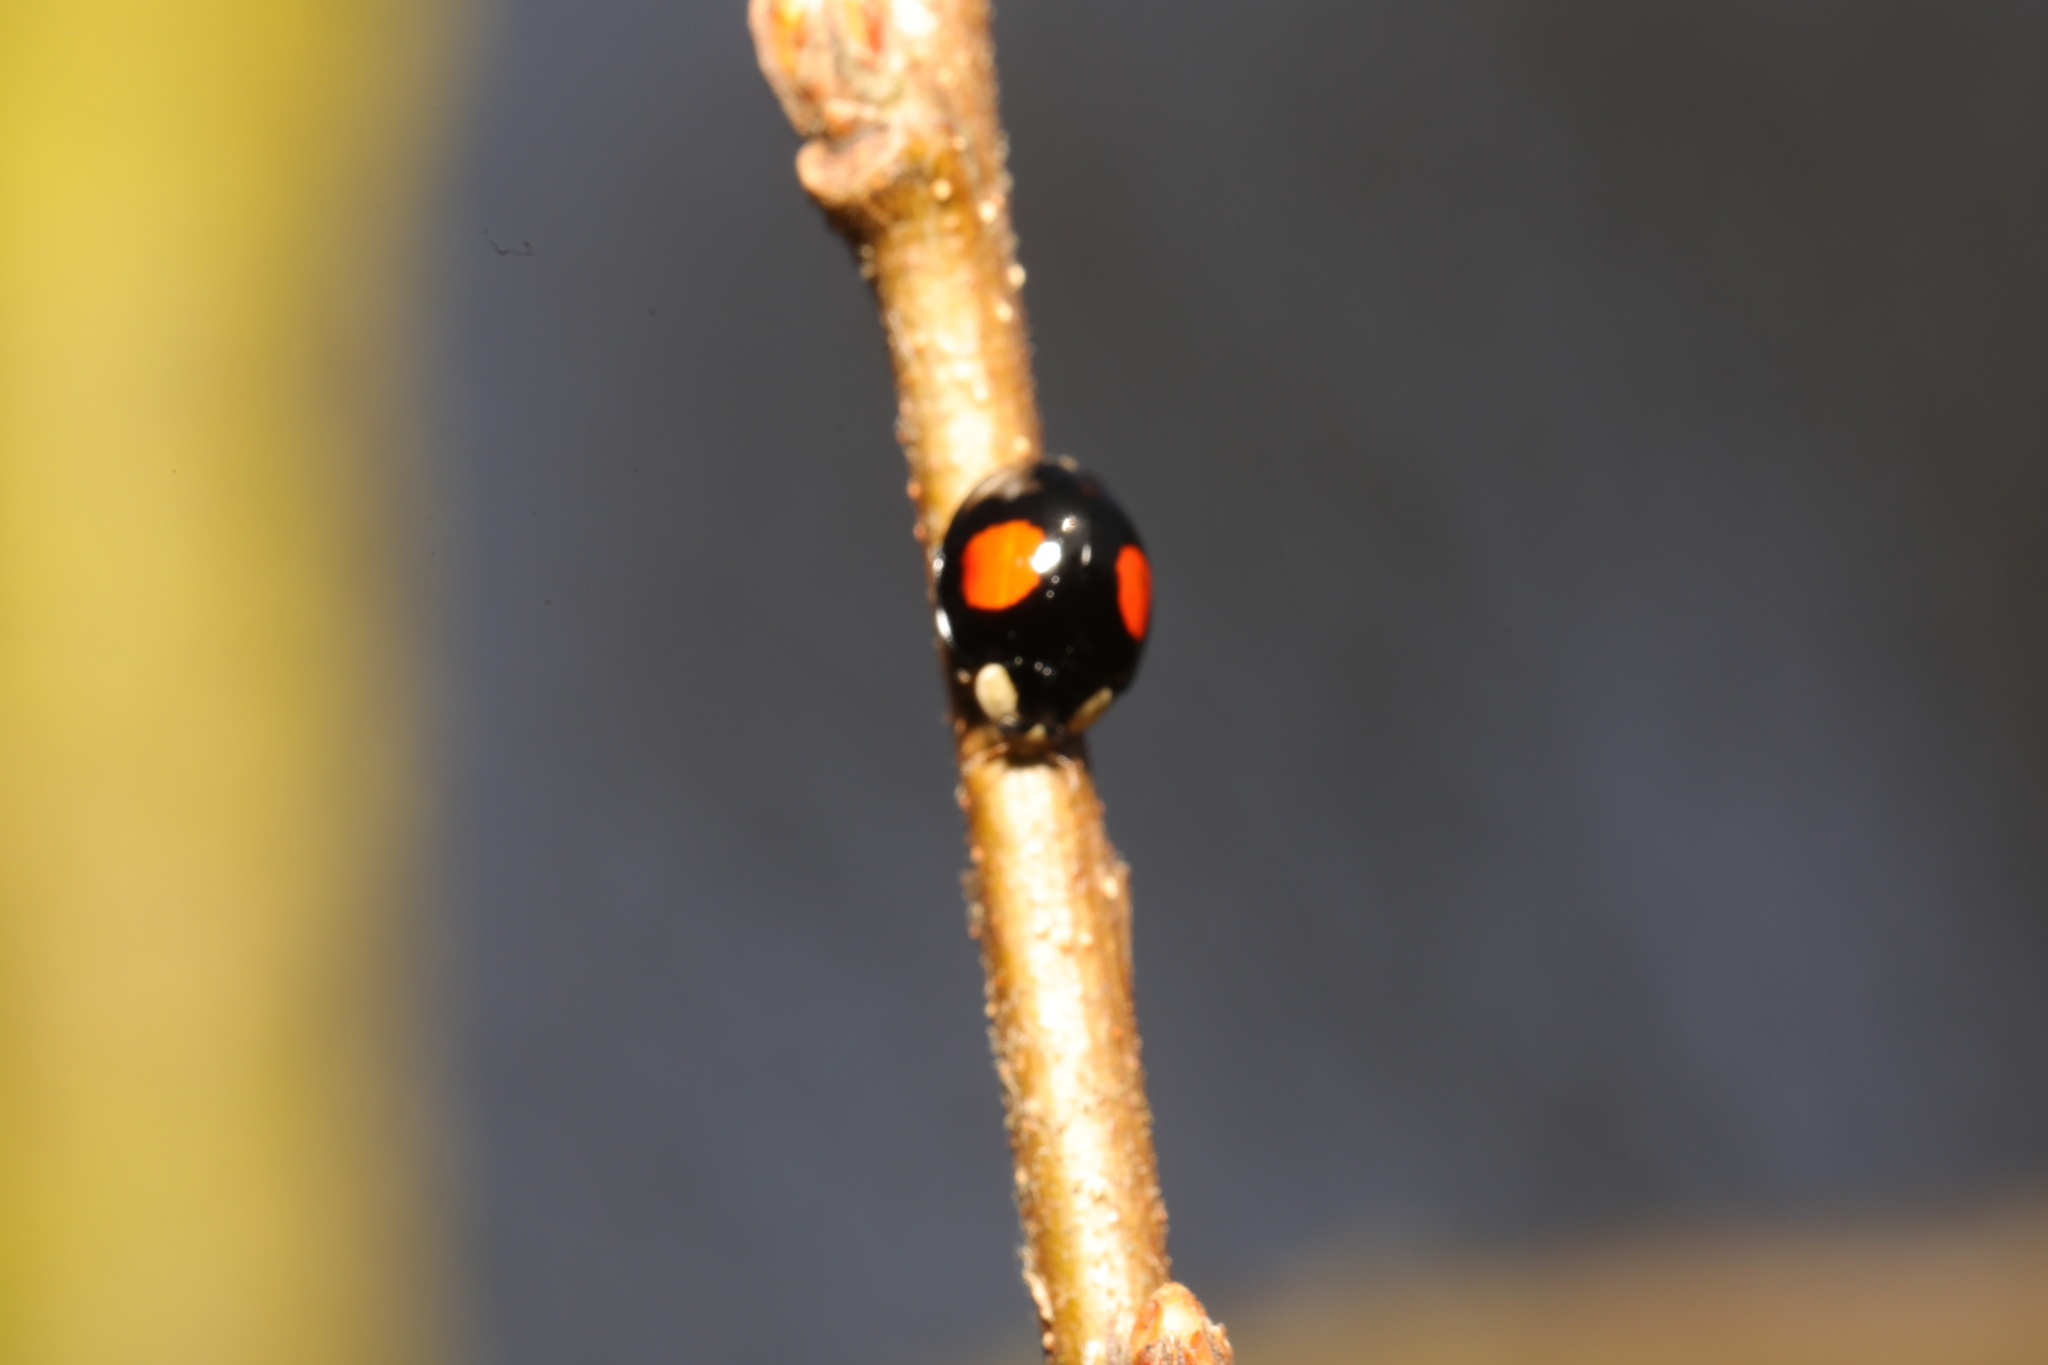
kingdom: Animalia
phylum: Arthropoda
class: Insecta
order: Coleoptera
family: Coccinellidae
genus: Harmonia
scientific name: Harmonia axyridis
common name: Harlequin ladybird
